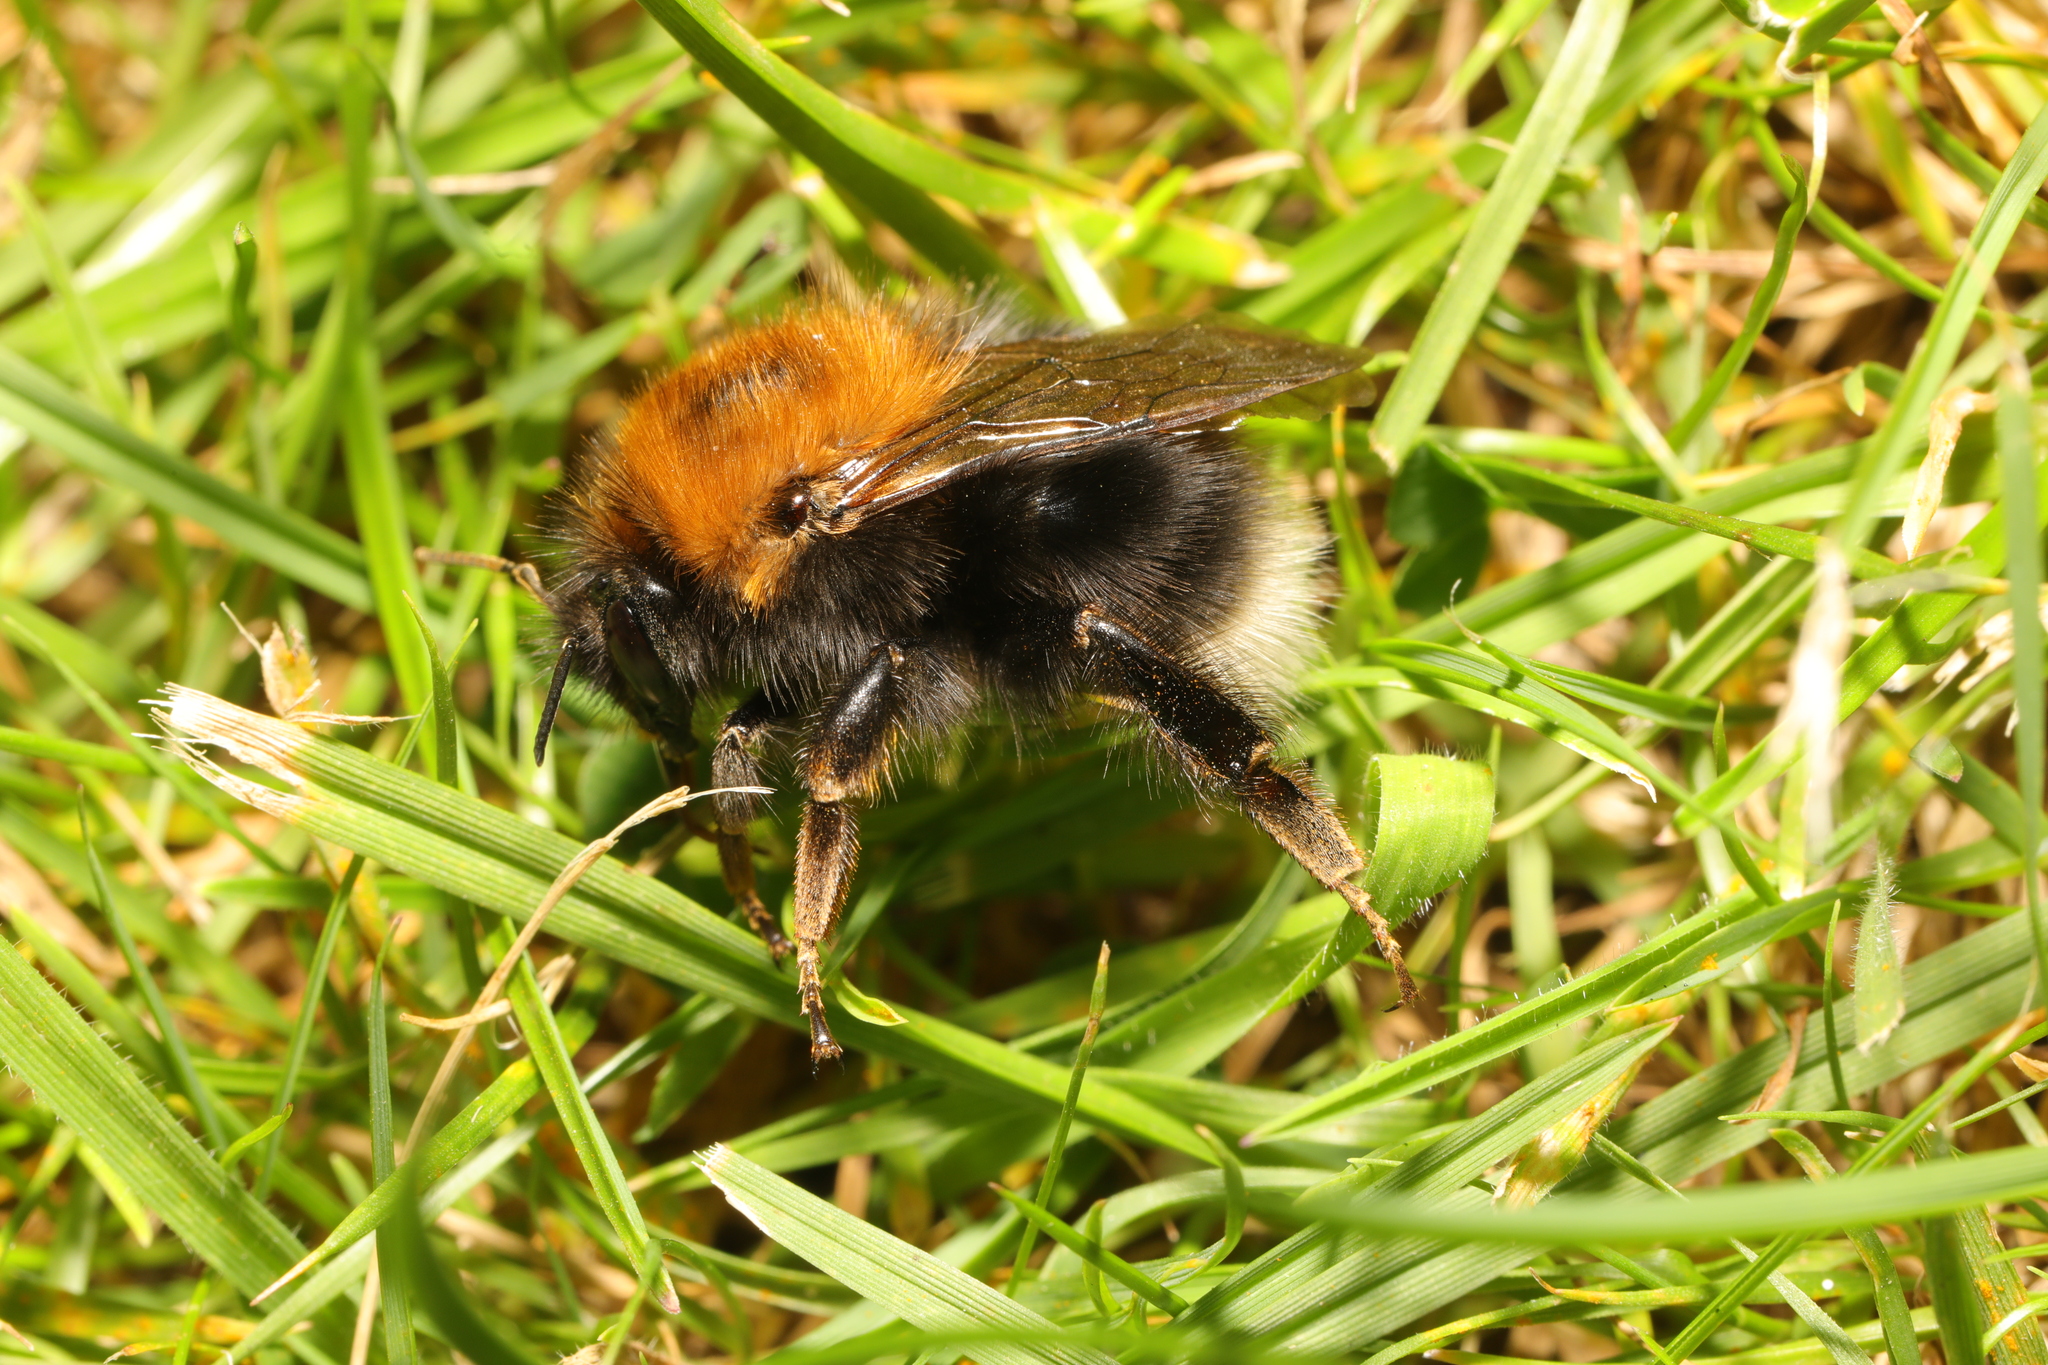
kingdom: Animalia
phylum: Arthropoda
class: Insecta
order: Hymenoptera
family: Apidae
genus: Bombus
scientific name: Bombus hypnorum
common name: New garden bumblebee
